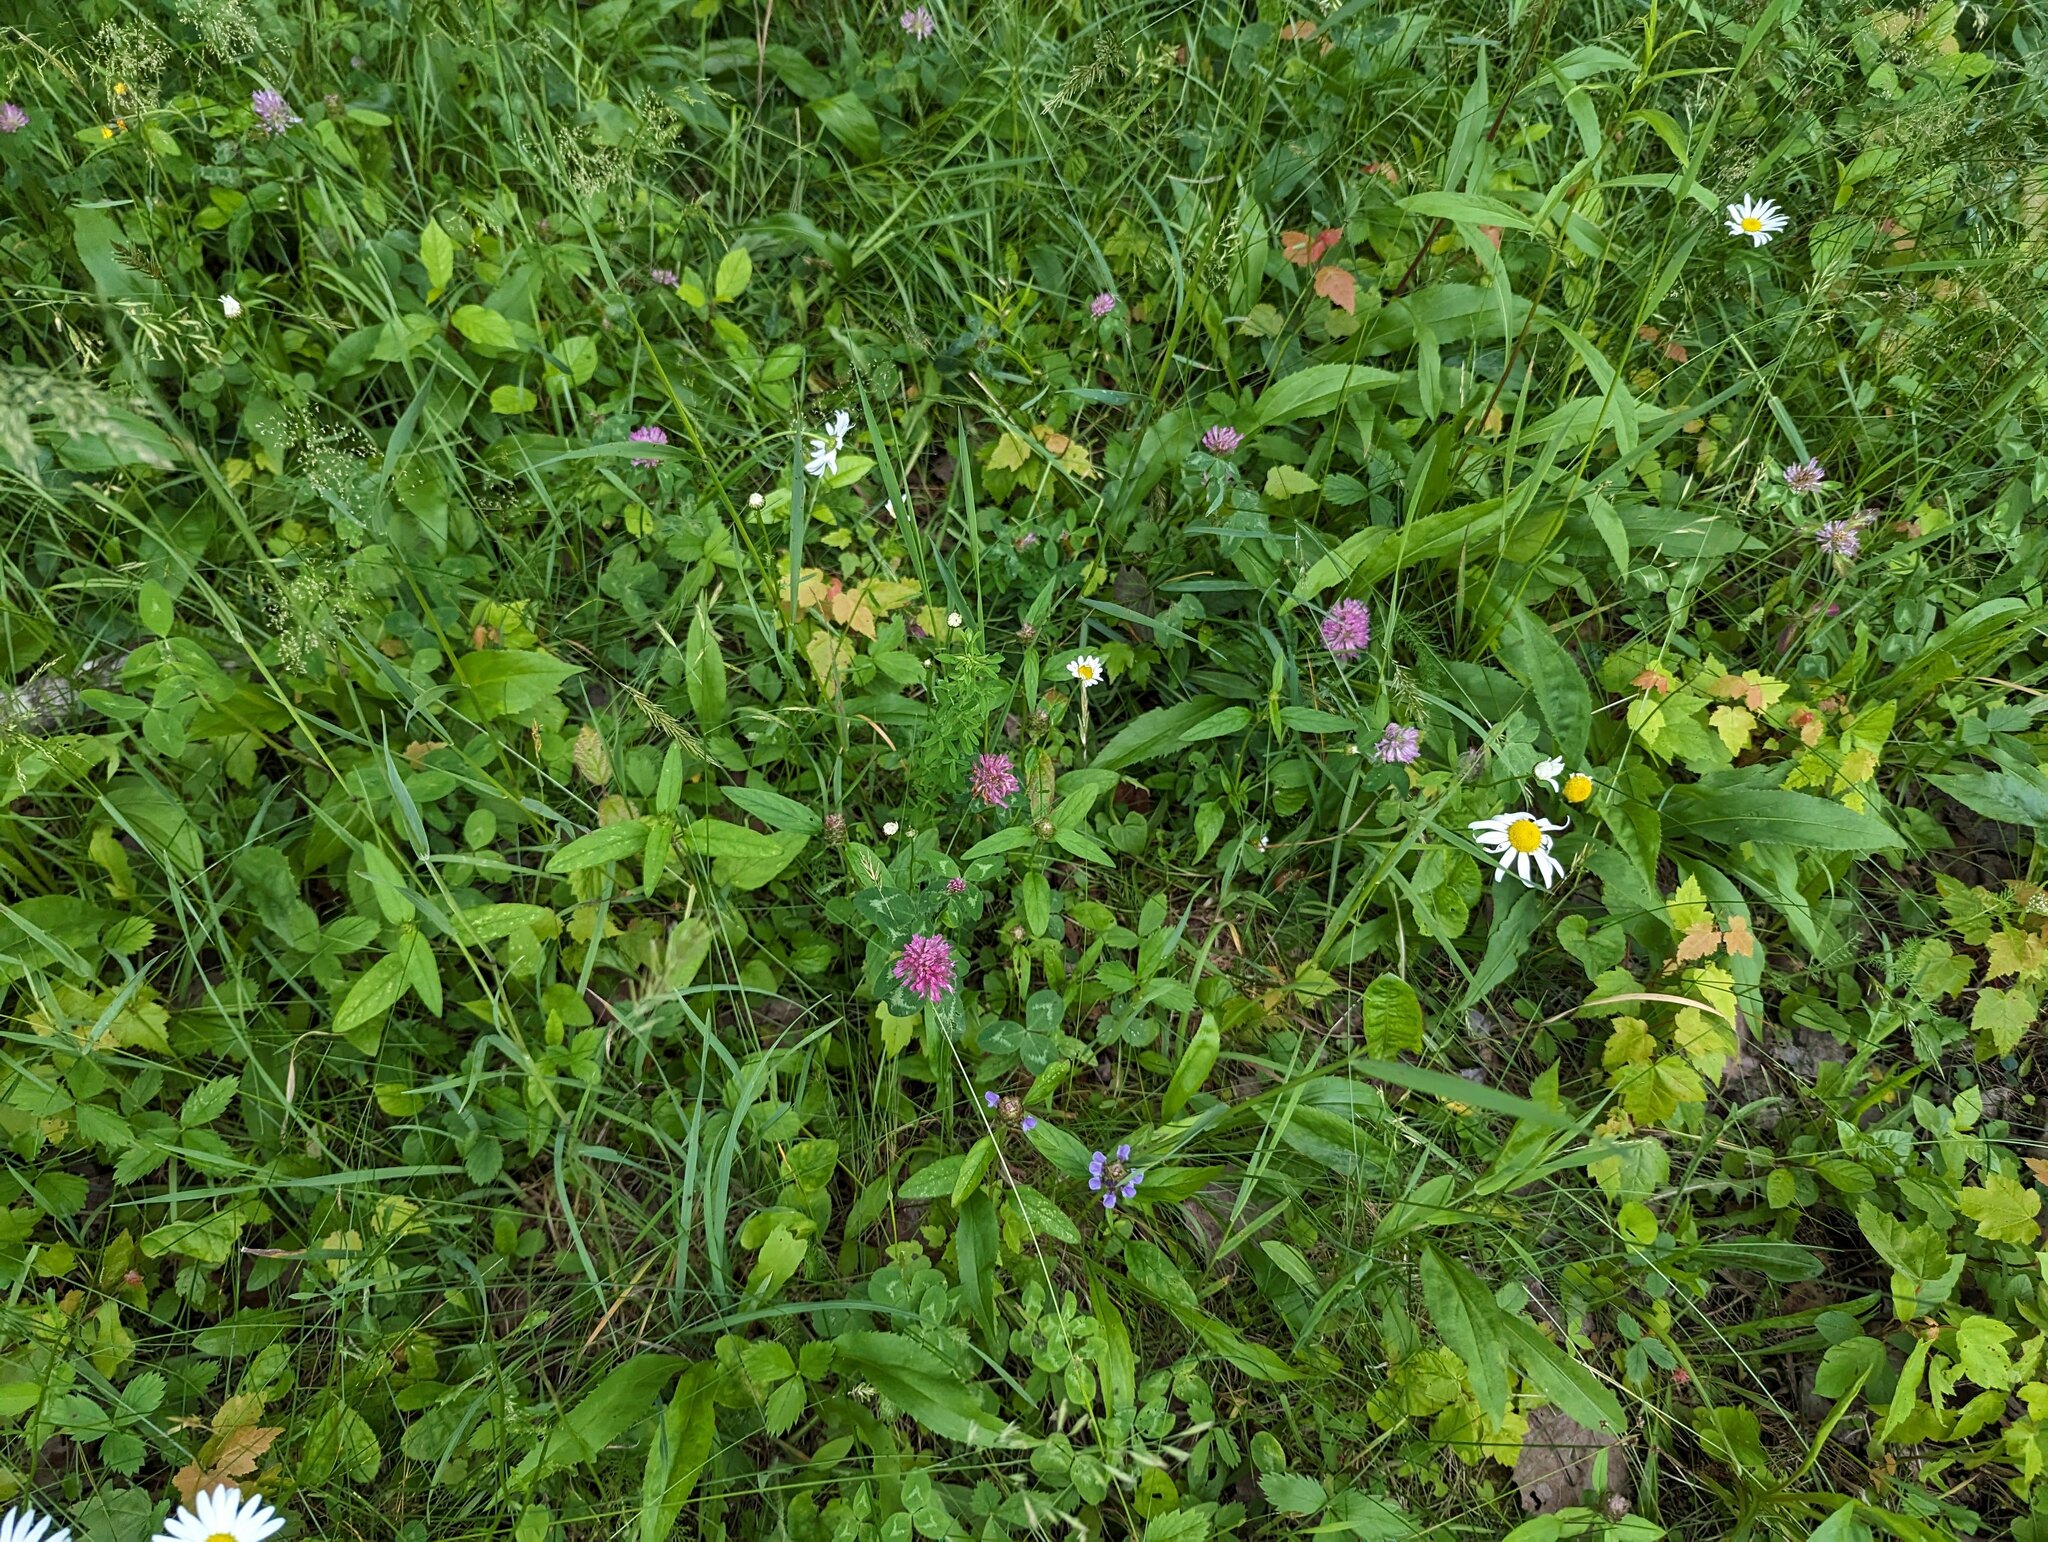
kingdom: Plantae
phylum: Tracheophyta
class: Magnoliopsida
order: Fabales
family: Fabaceae
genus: Trifolium
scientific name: Trifolium pratense
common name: Red clover
